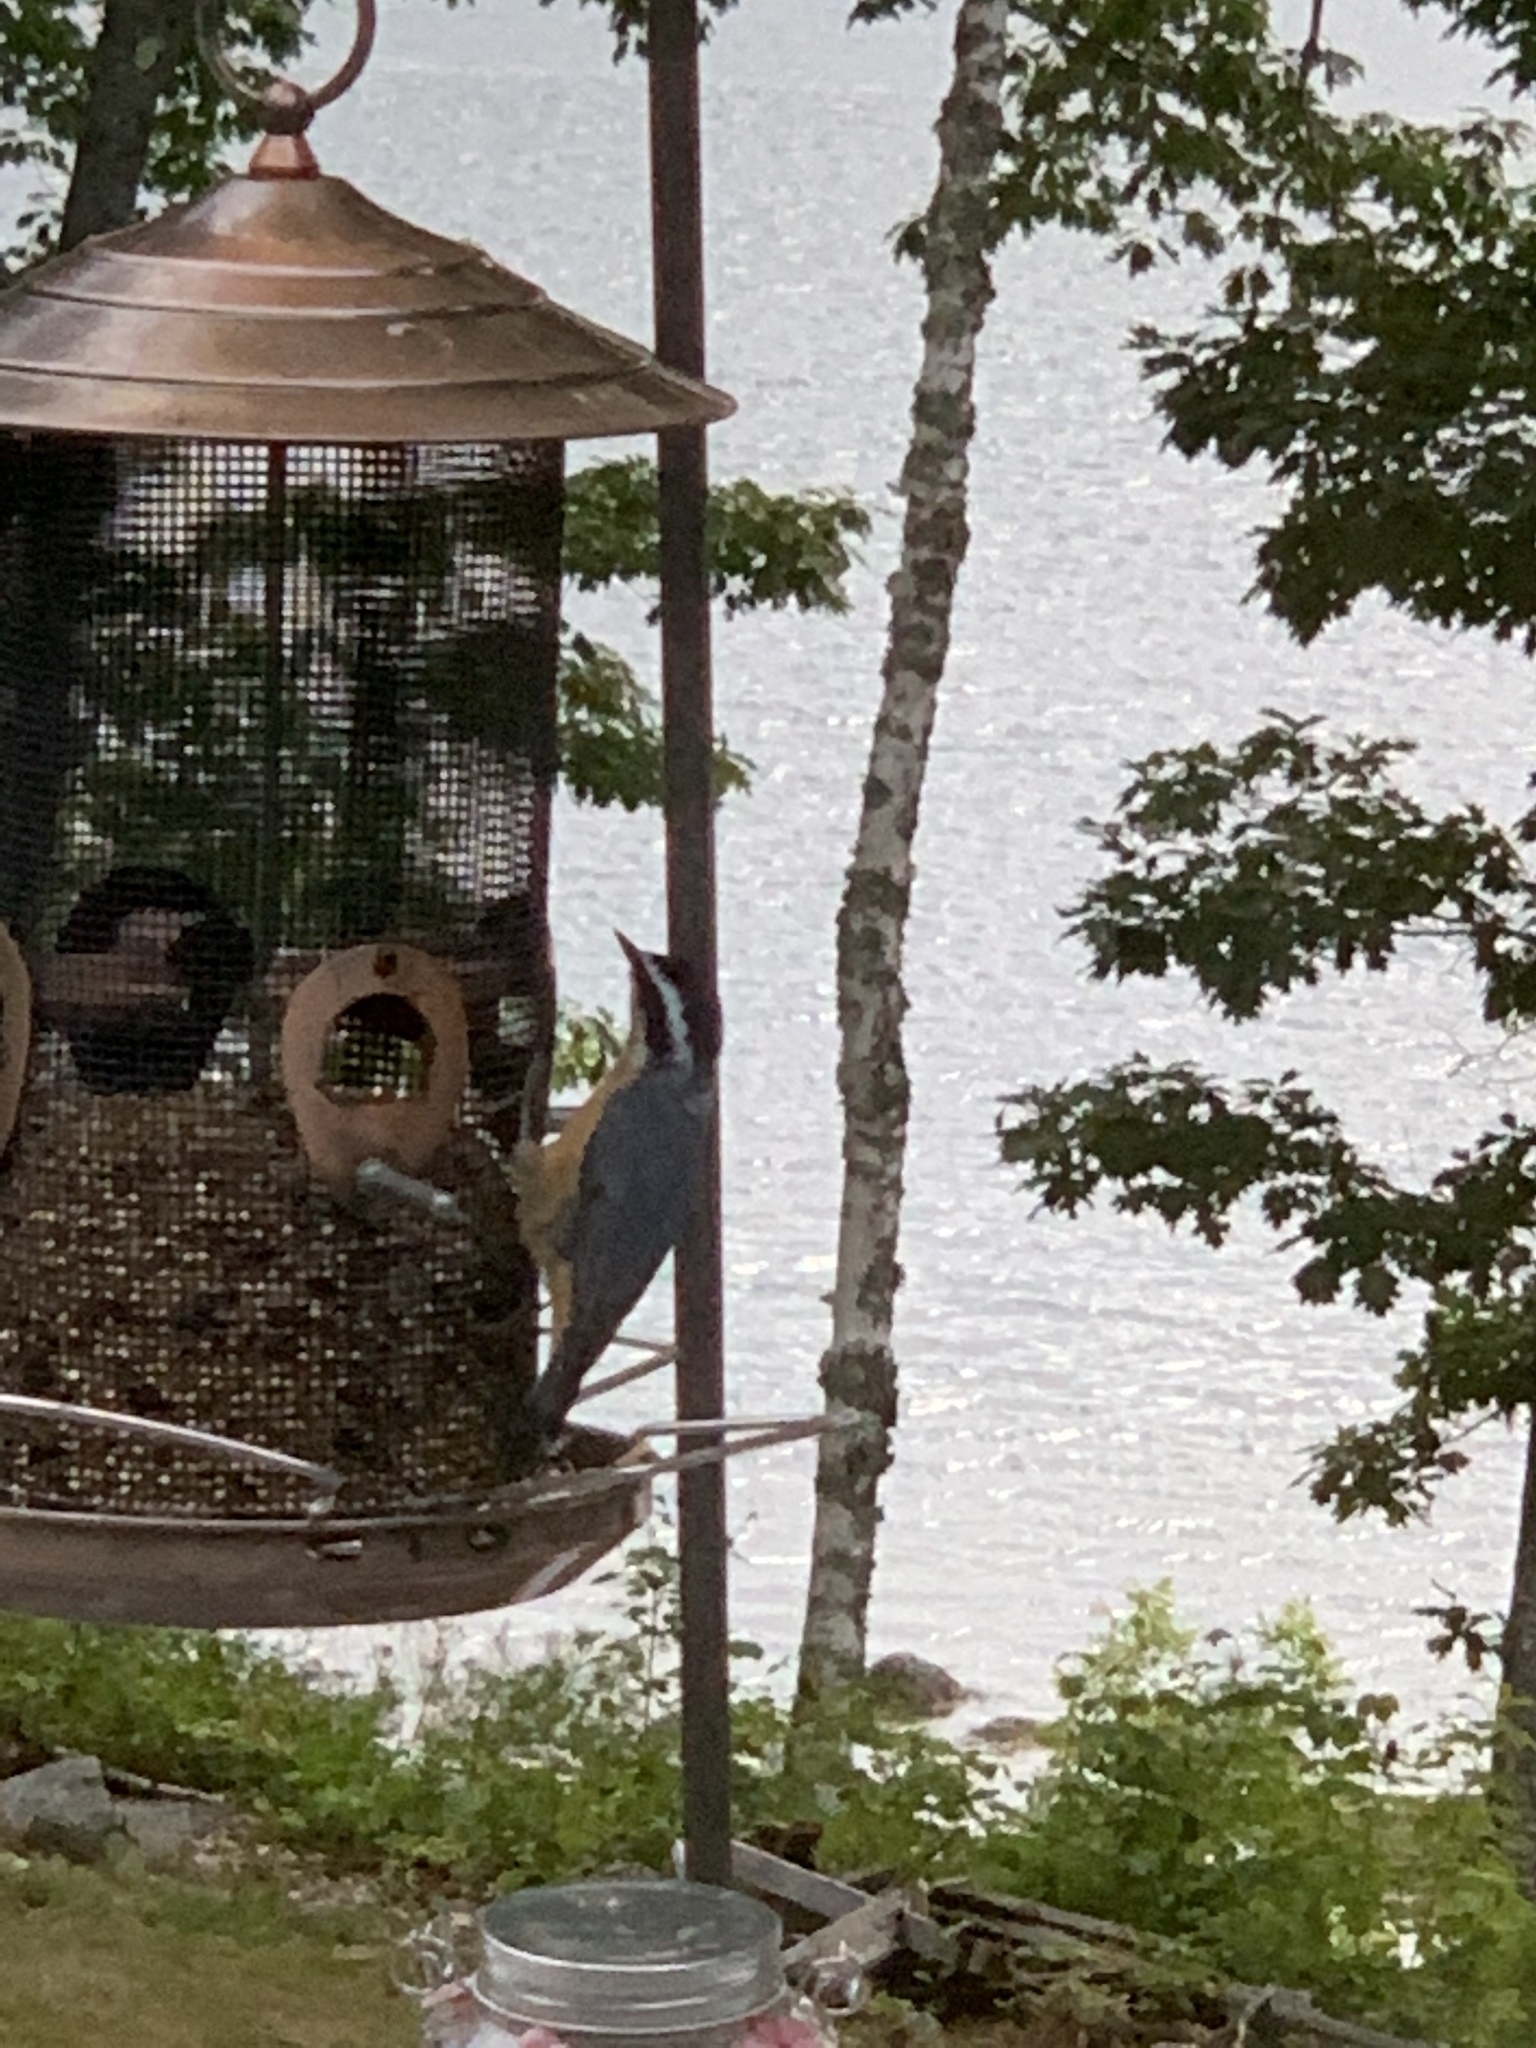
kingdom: Animalia
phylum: Chordata
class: Aves
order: Passeriformes
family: Sittidae
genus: Sitta
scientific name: Sitta canadensis
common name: Red-breasted nuthatch
